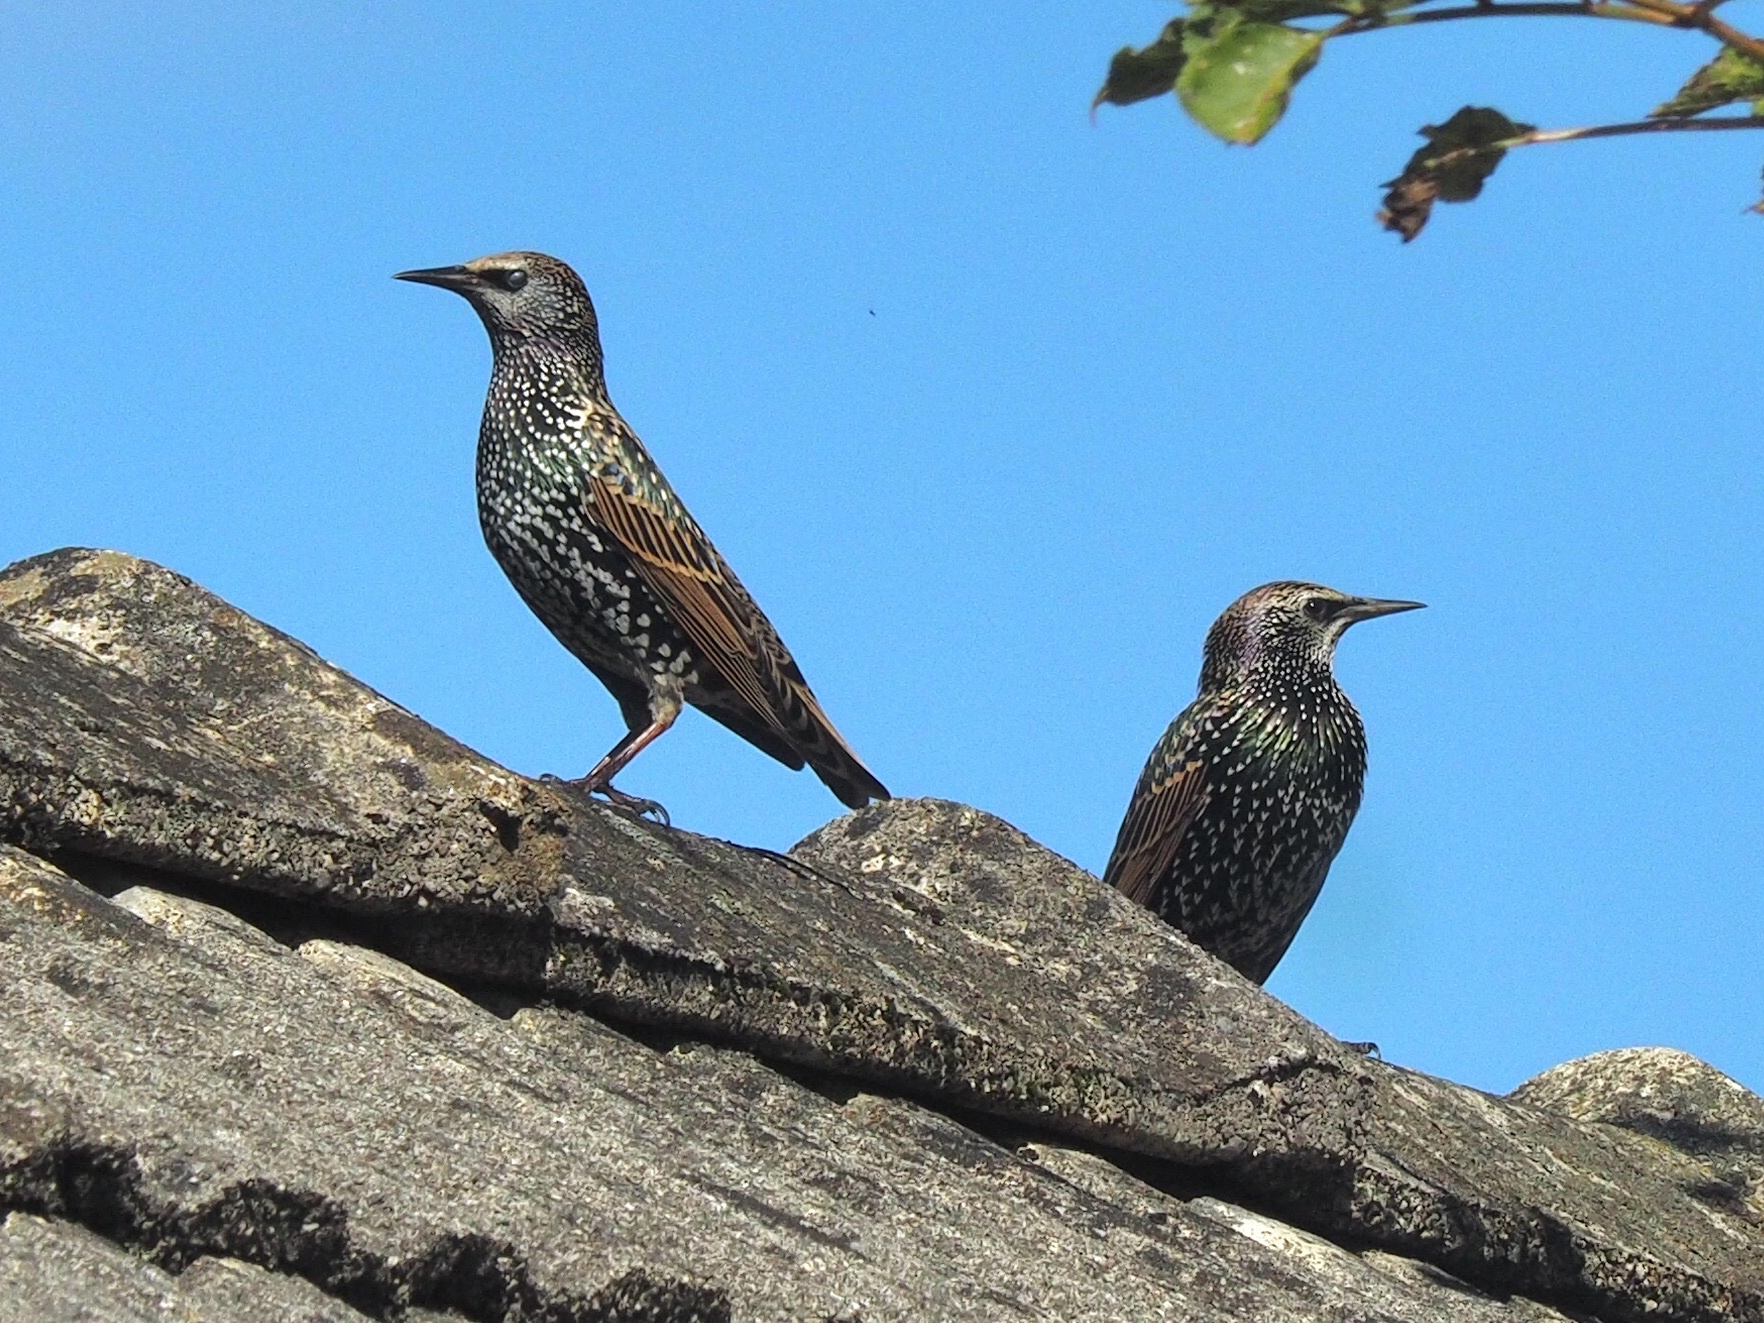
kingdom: Animalia
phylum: Chordata
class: Aves
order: Passeriformes
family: Sturnidae
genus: Sturnus
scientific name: Sturnus vulgaris
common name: Common starling
